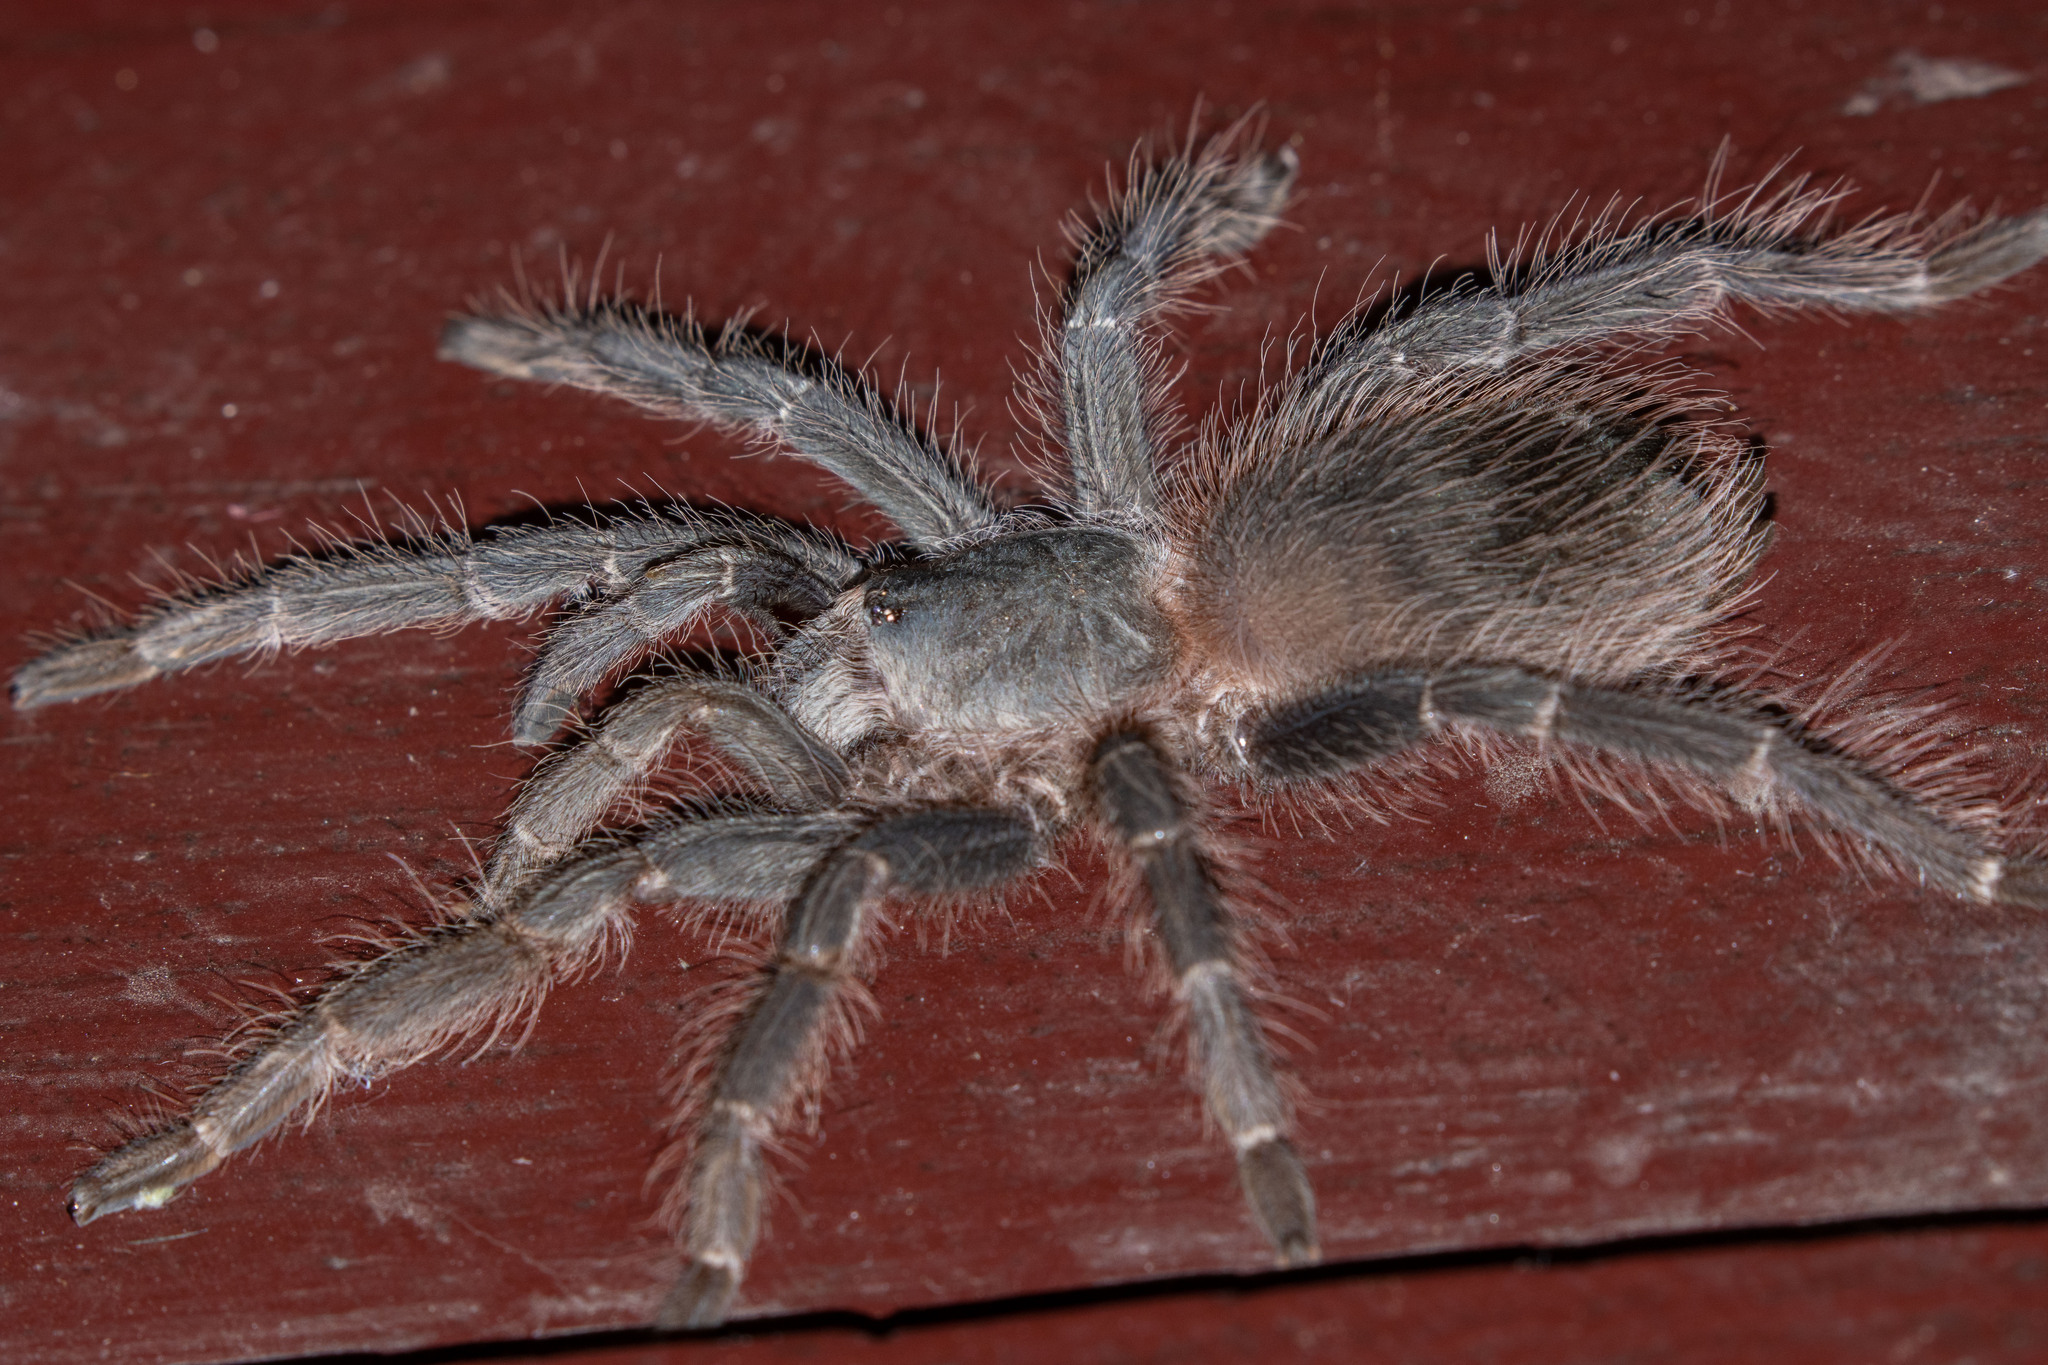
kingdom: Animalia
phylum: Arthropoda
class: Arachnida
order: Araneae
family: Theraphosidae
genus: Lasiodora
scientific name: Lasiodora parahybana
